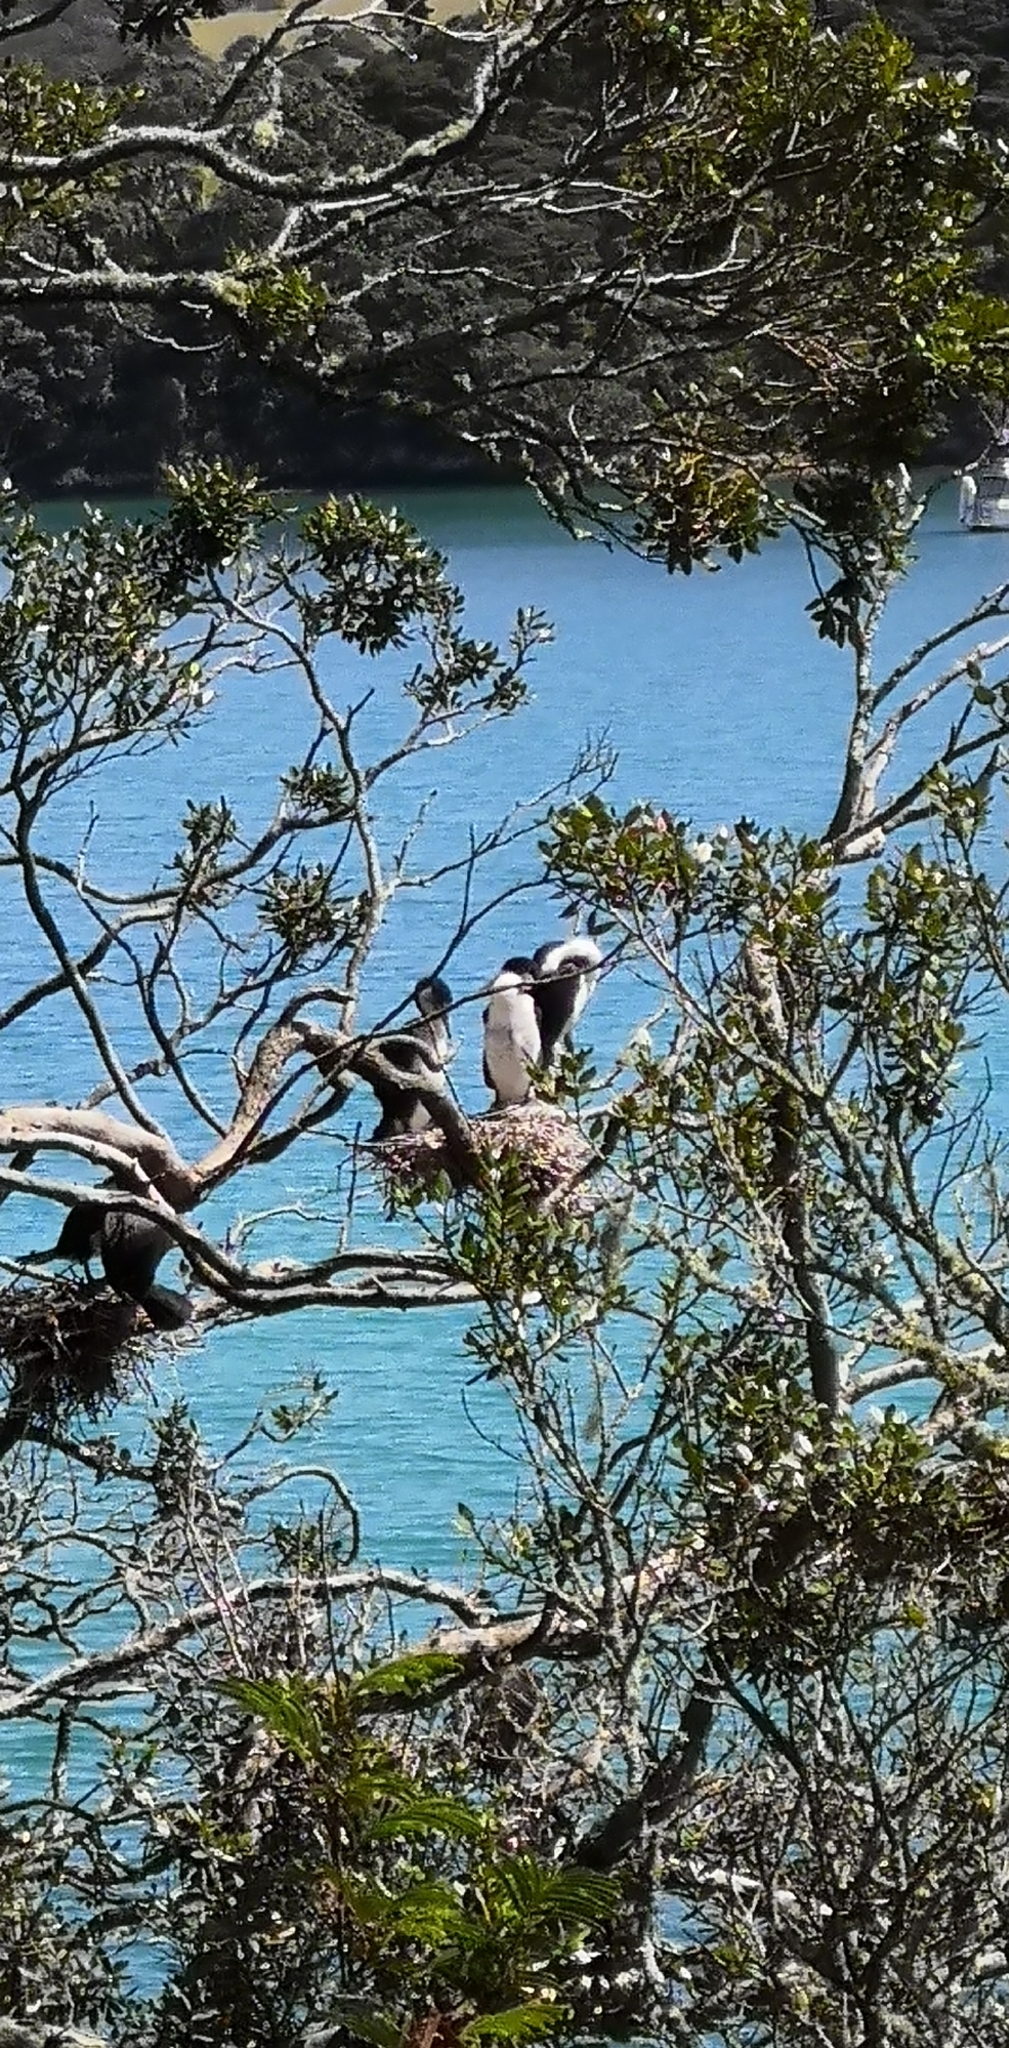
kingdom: Animalia
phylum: Chordata
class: Aves
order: Suliformes
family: Phalacrocoracidae
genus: Phalacrocorax
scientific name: Phalacrocorax varius
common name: Pied cormorant
